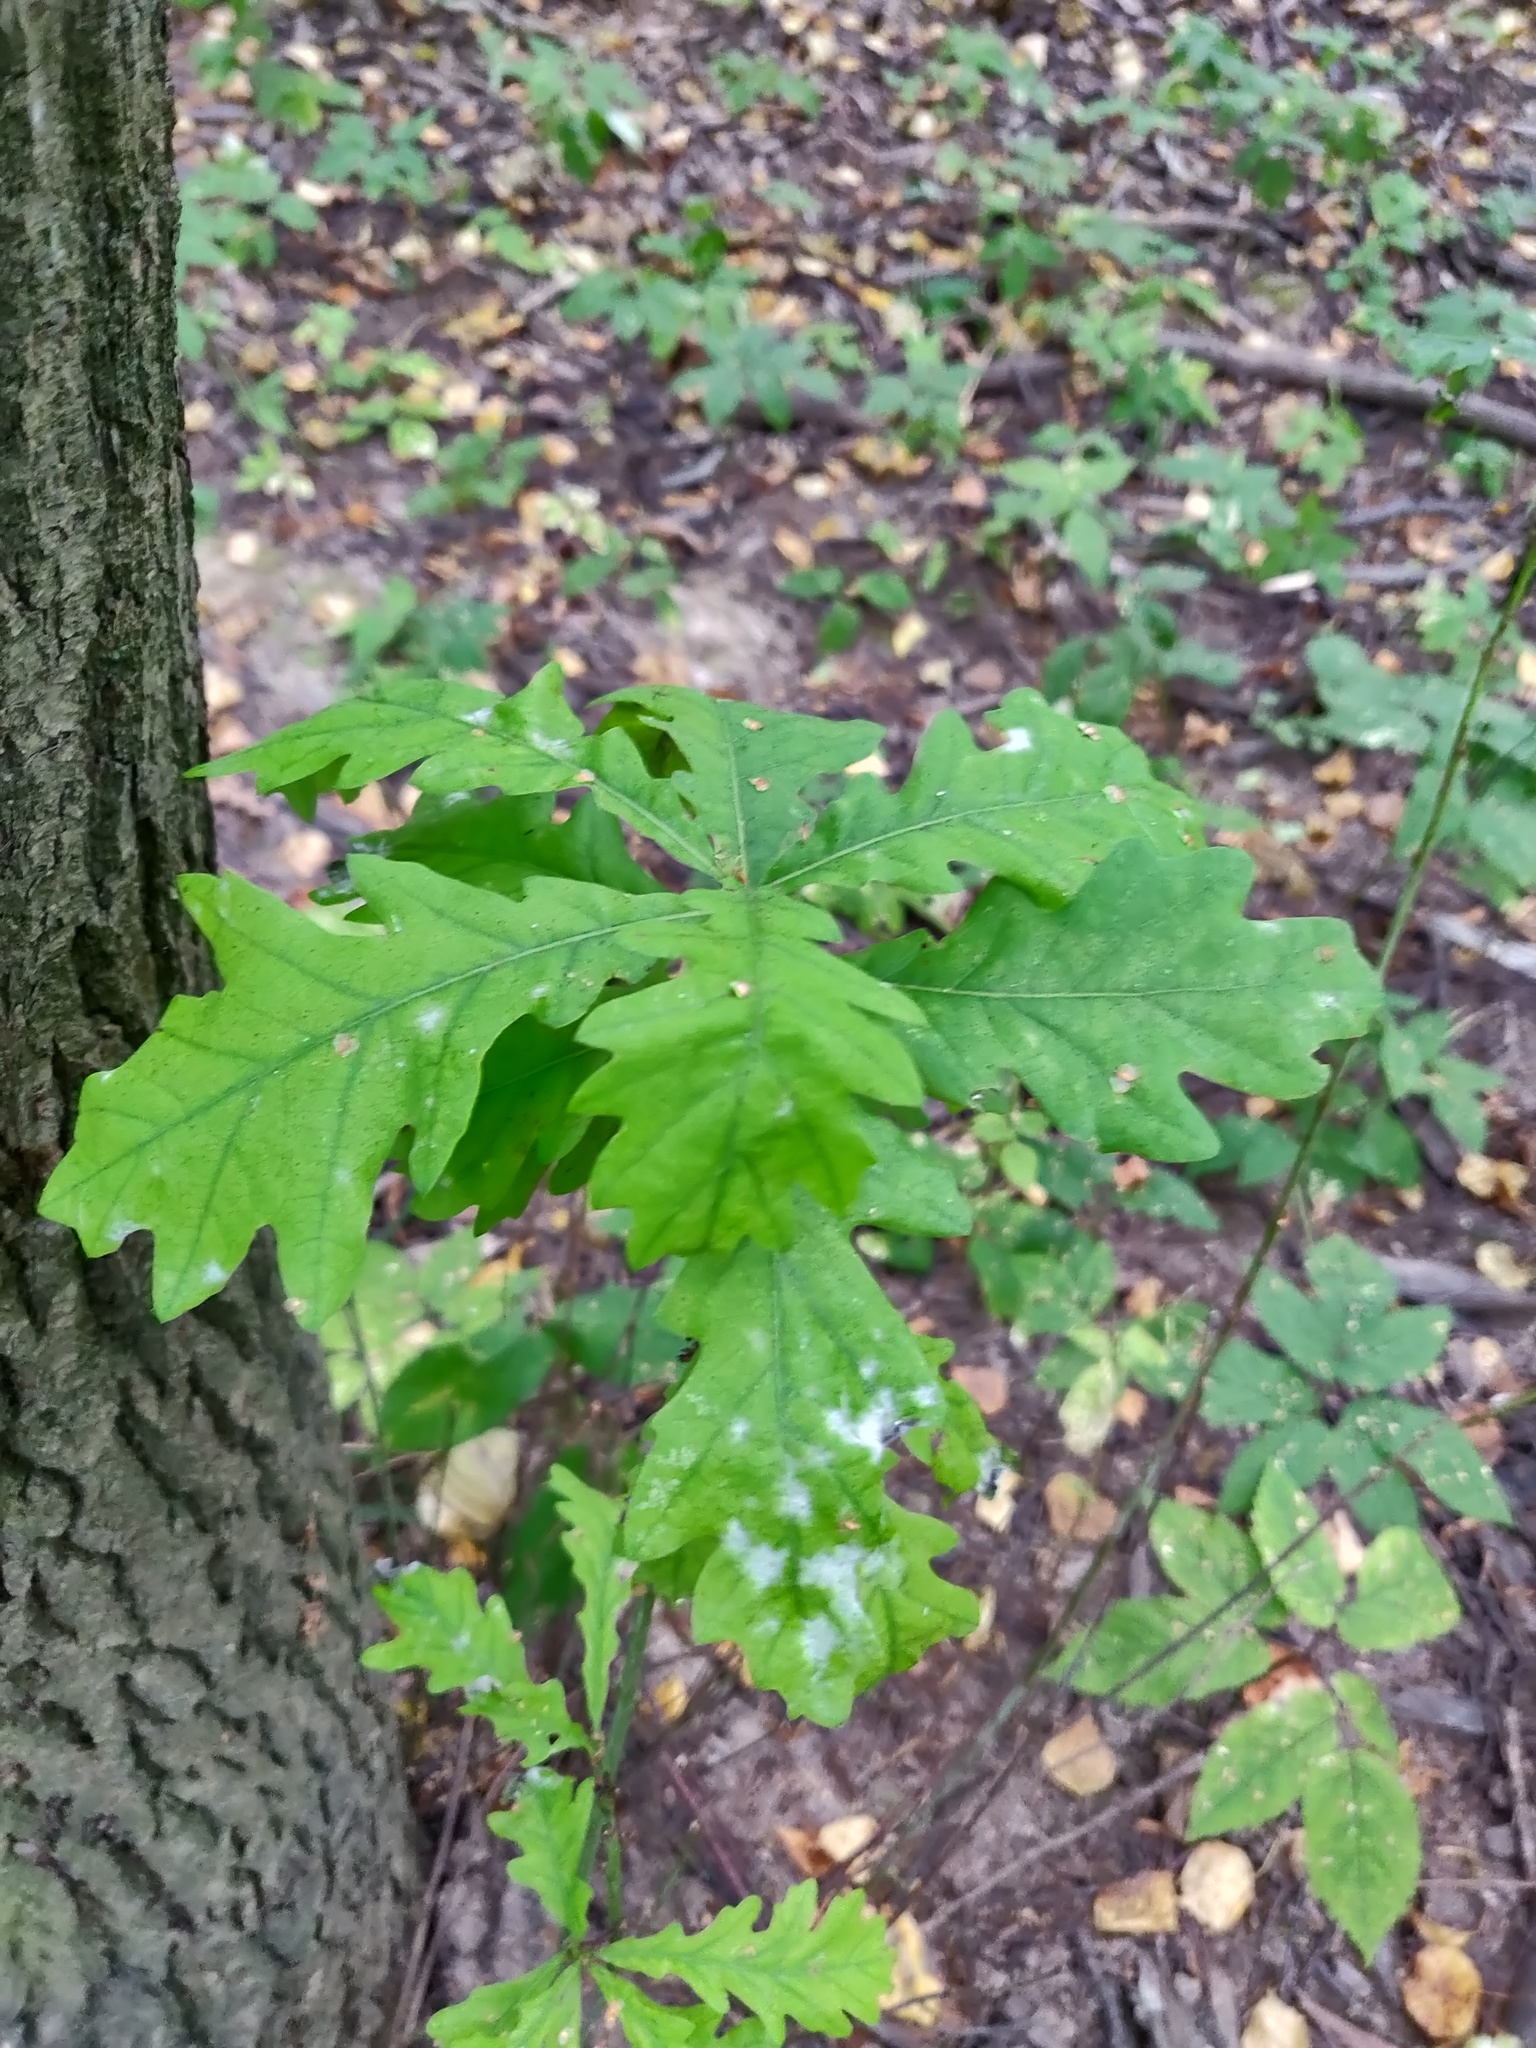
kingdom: Plantae
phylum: Tracheophyta
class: Magnoliopsida
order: Fagales
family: Fagaceae
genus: Quercus
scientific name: Quercus robur
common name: Pedunculate oak
